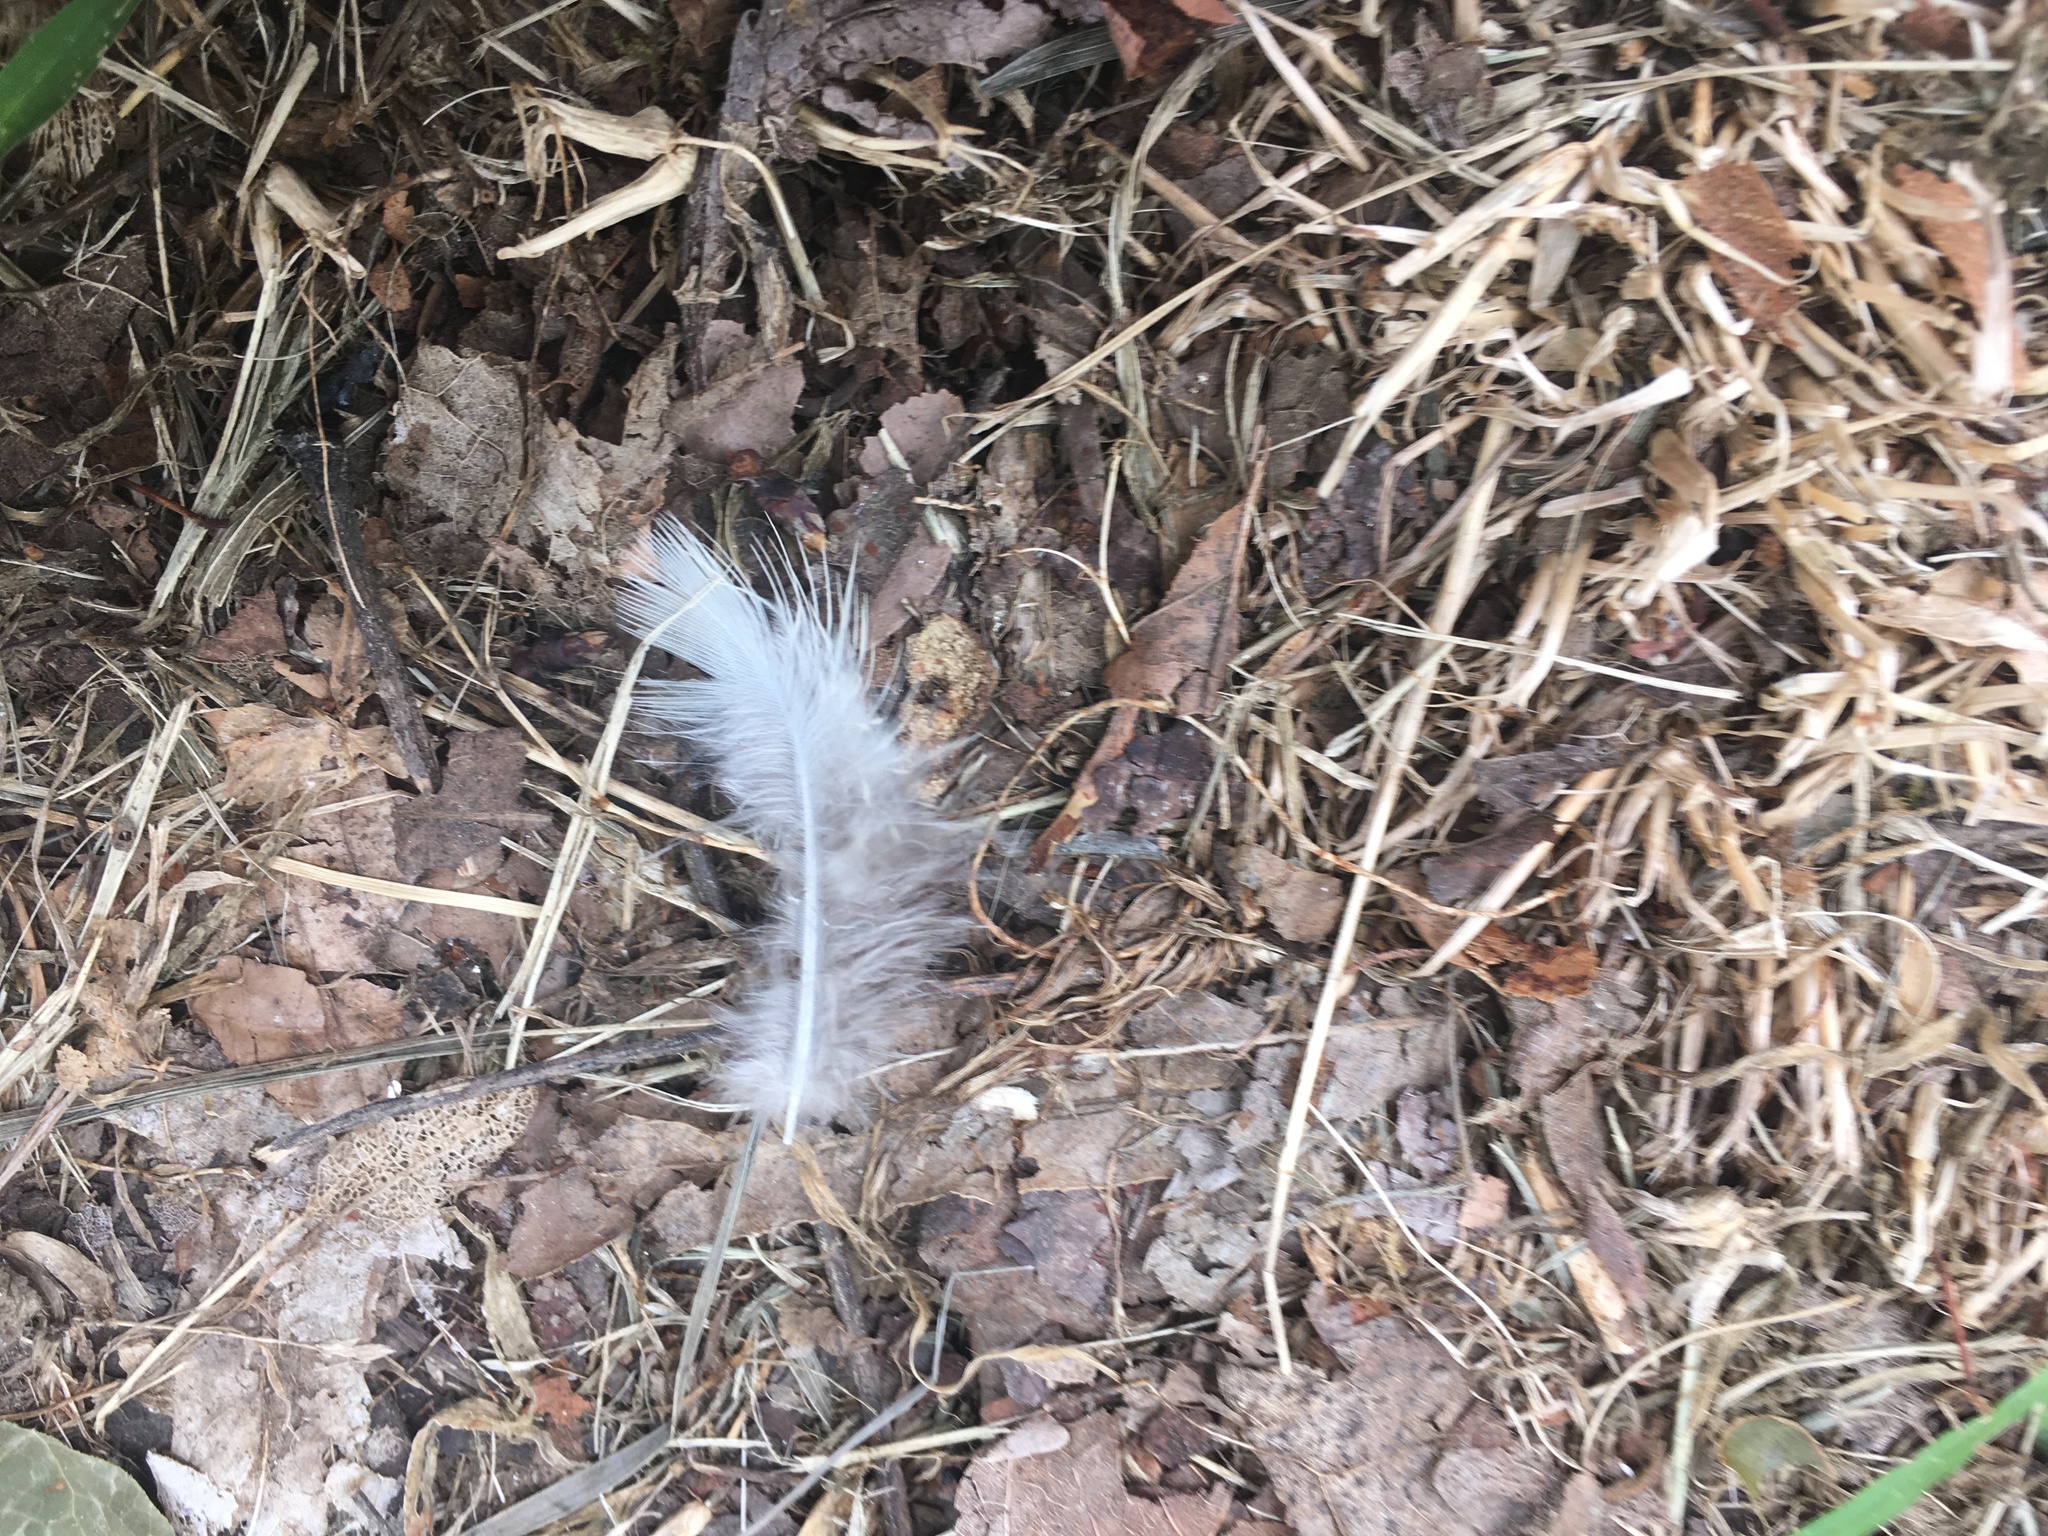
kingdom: Animalia
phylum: Chordata
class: Aves
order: Columbiformes
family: Columbidae
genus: Zenaida
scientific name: Zenaida macroura
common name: Mourning dove
